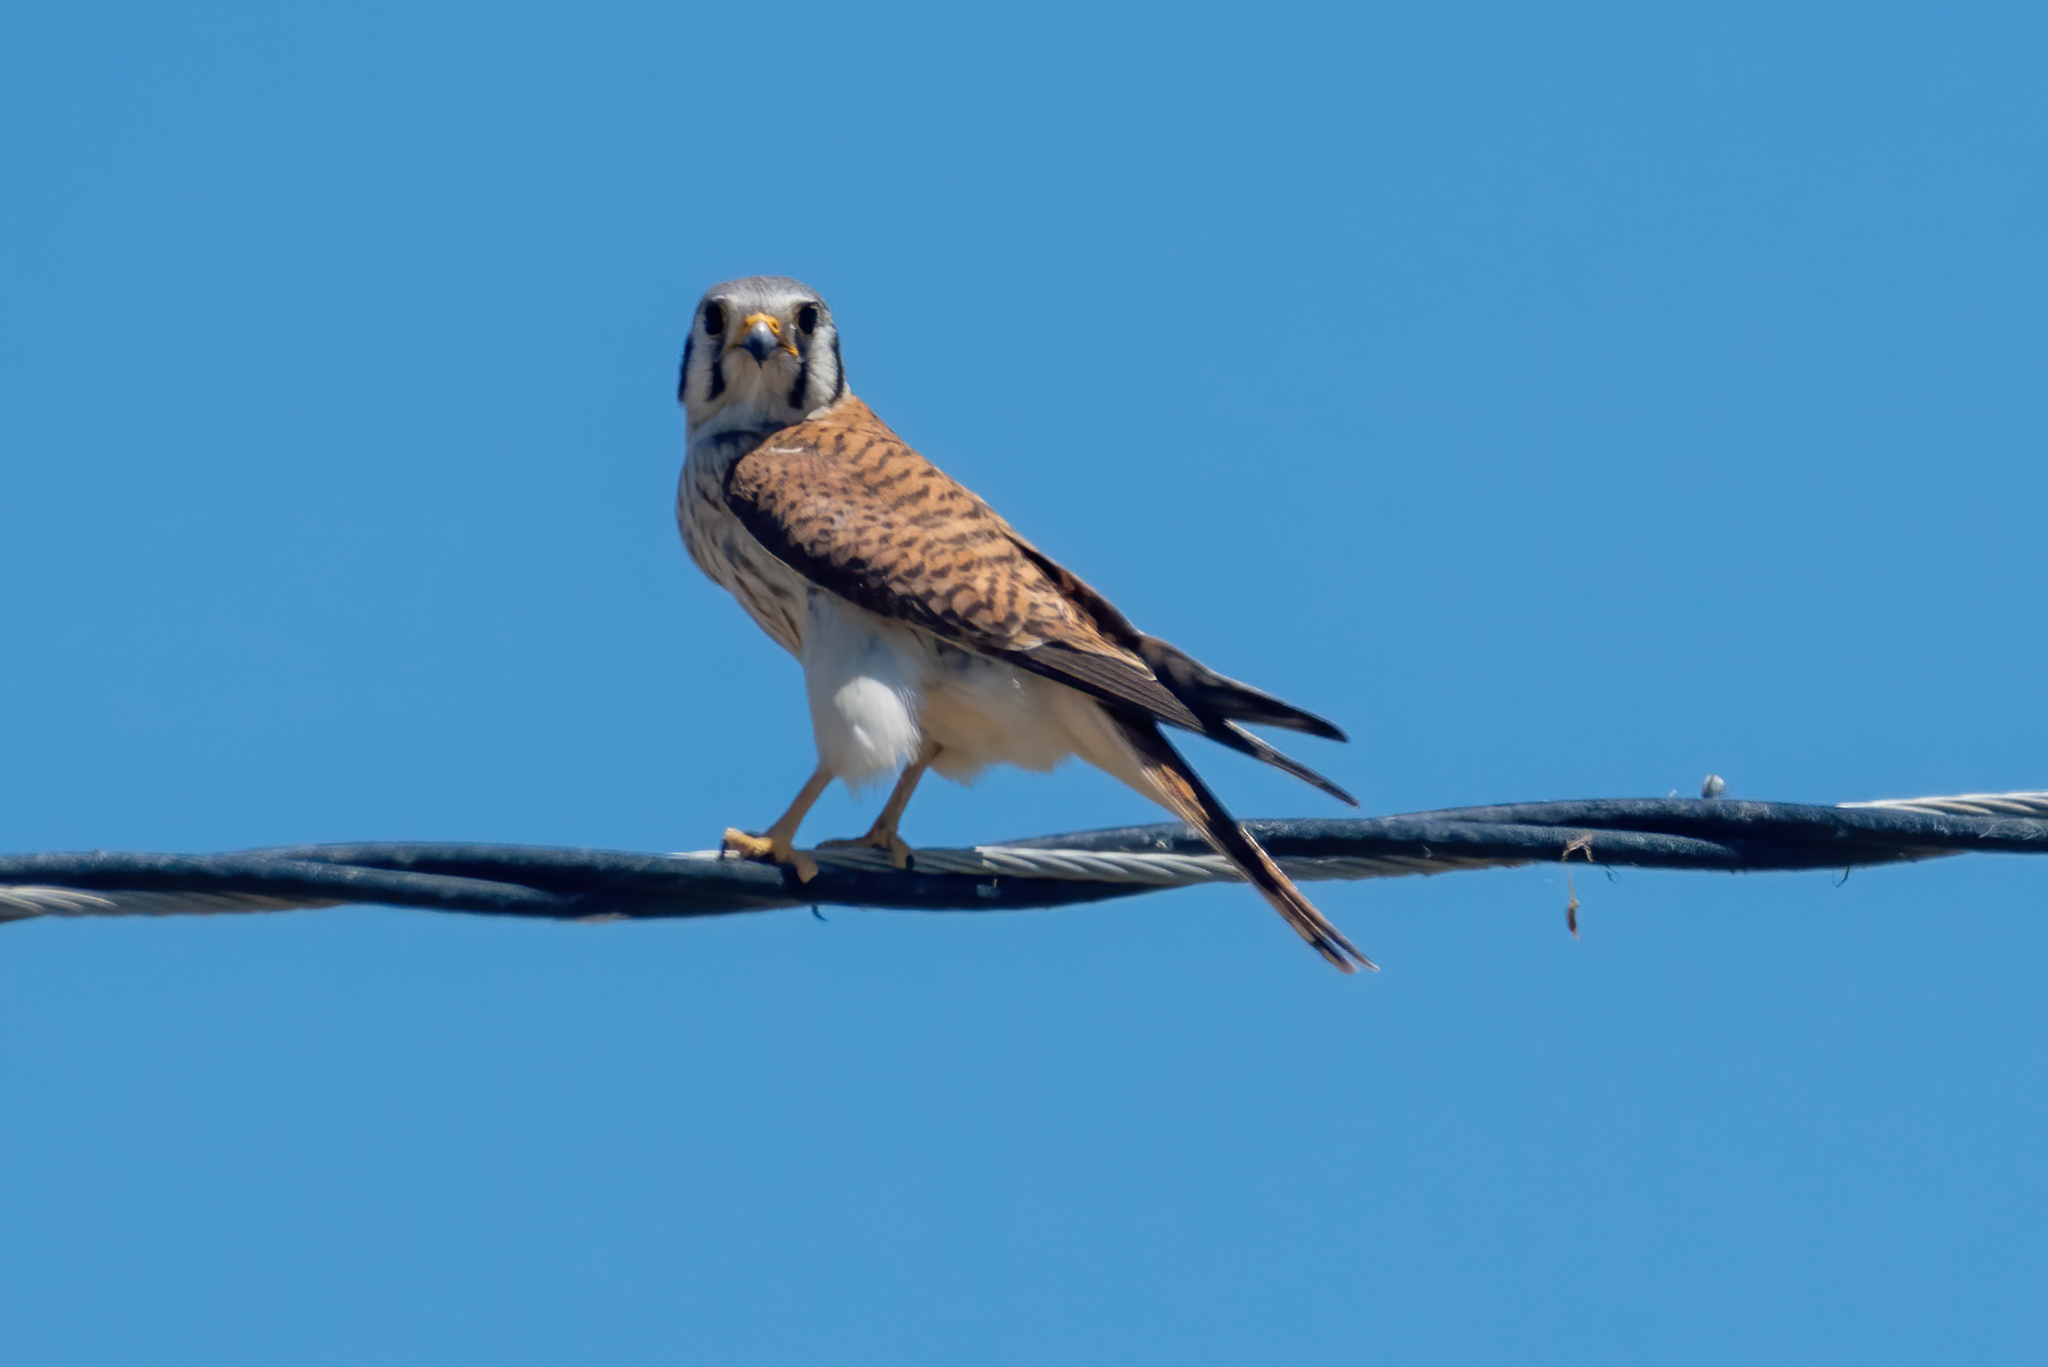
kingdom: Animalia
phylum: Chordata
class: Aves
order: Falconiformes
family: Falconidae
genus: Falco
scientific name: Falco sparverius
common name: American kestrel
